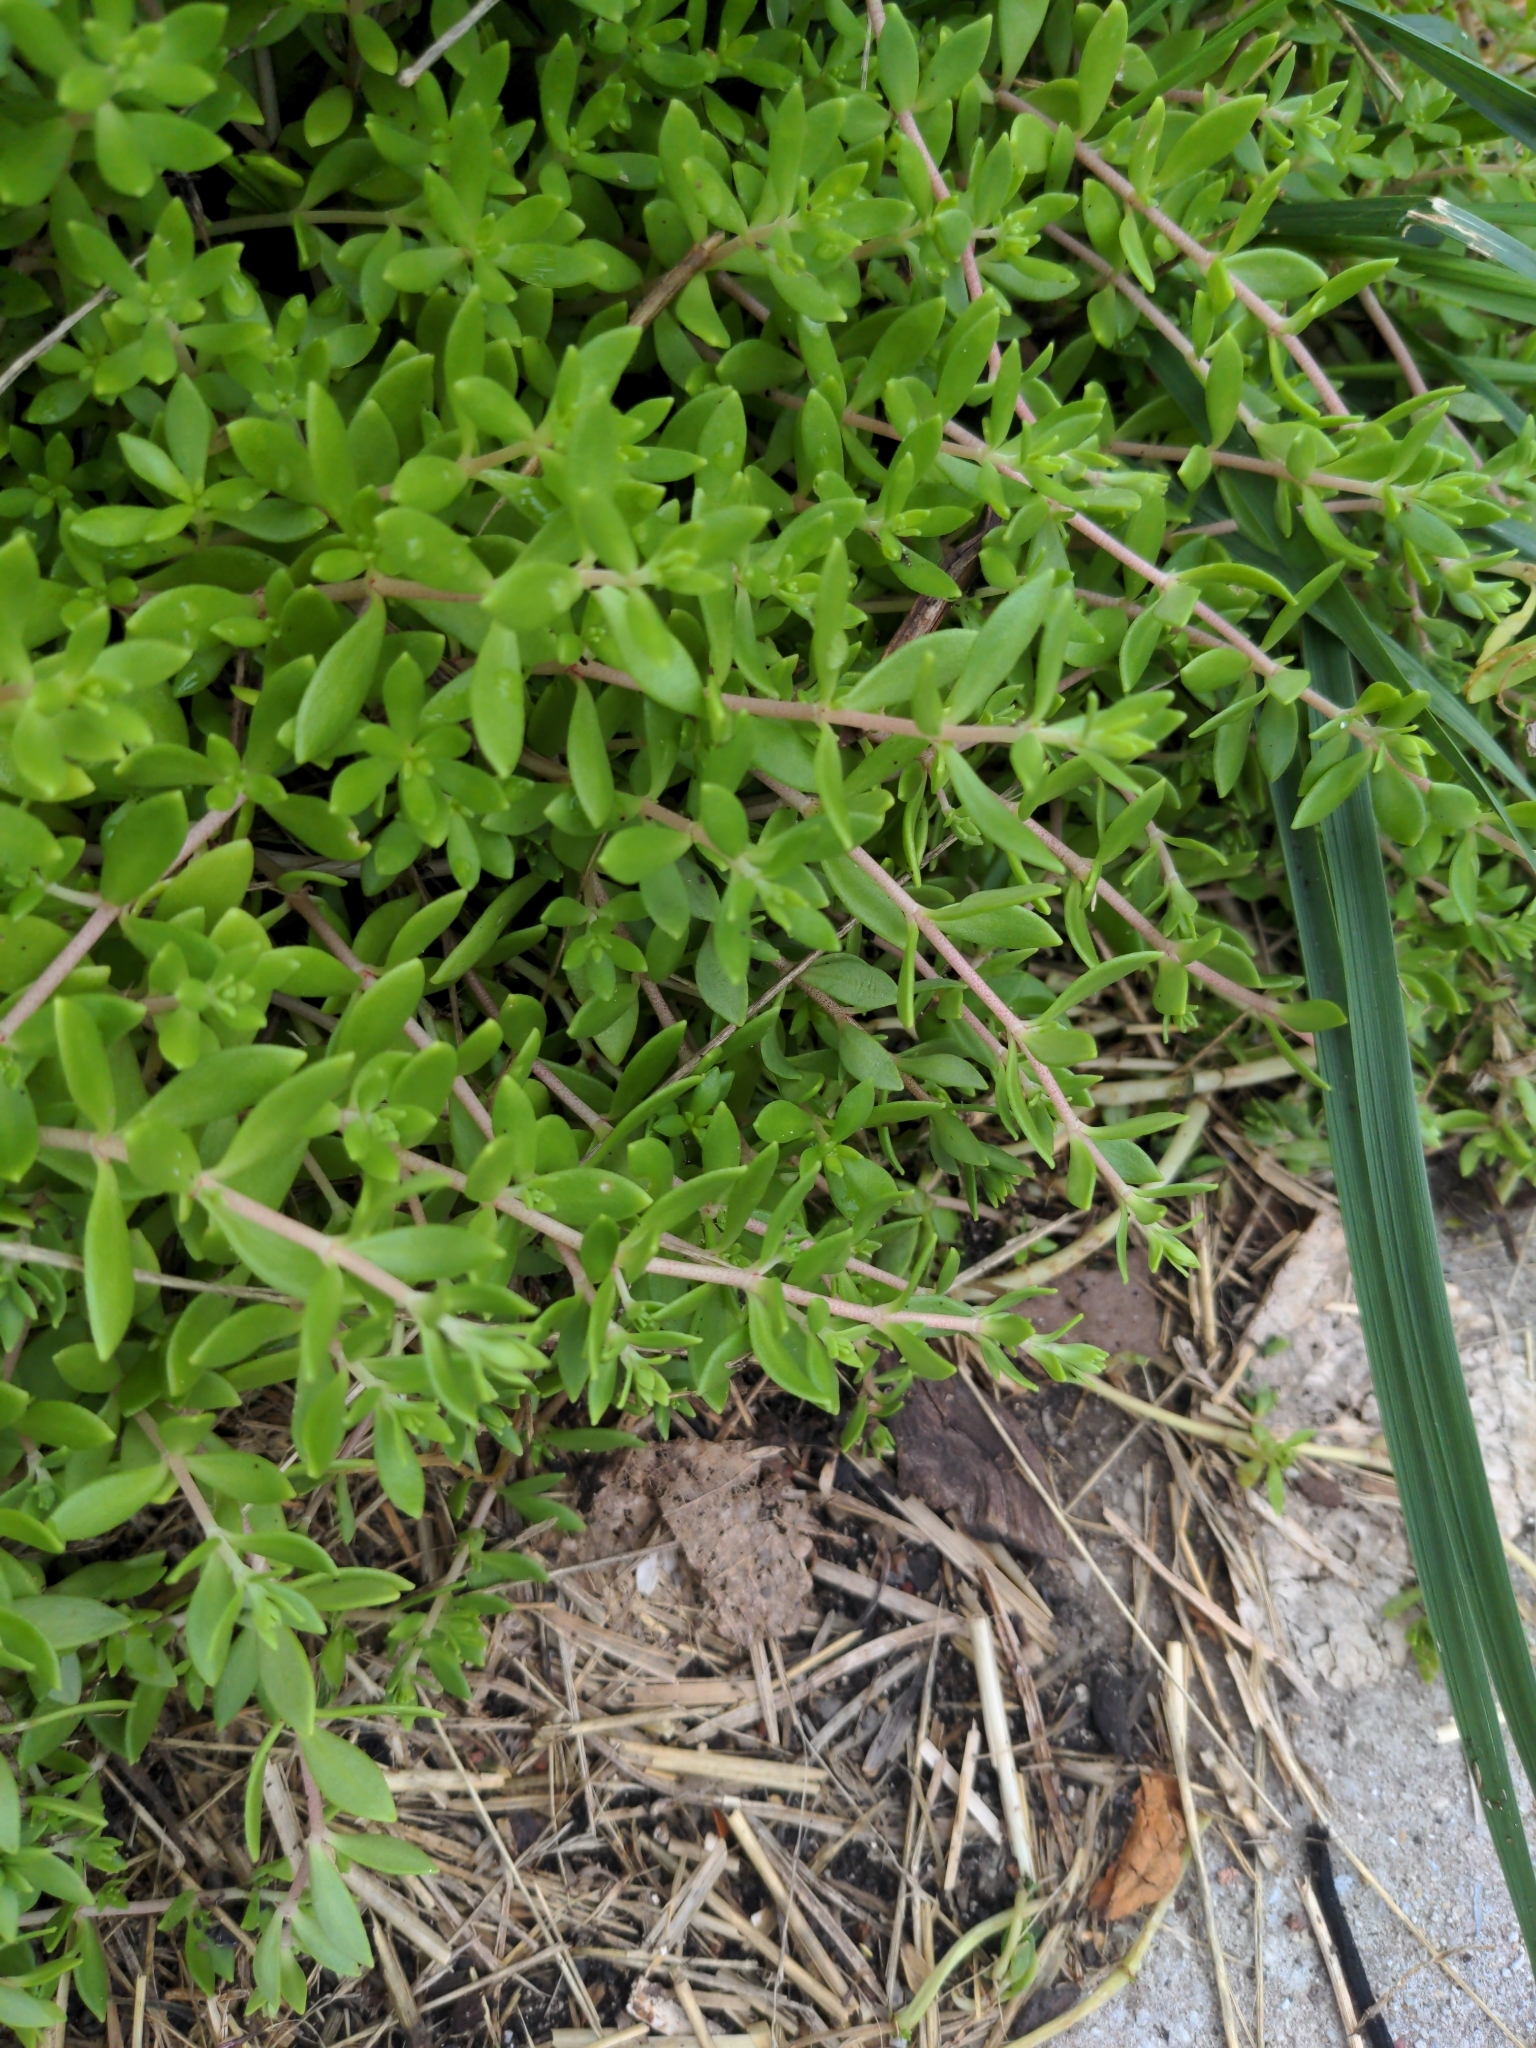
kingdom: Plantae
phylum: Tracheophyta
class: Magnoliopsida
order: Saxifragales
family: Crassulaceae
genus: Sedum
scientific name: Sedum sarmentosum
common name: Stringy stonecrop
